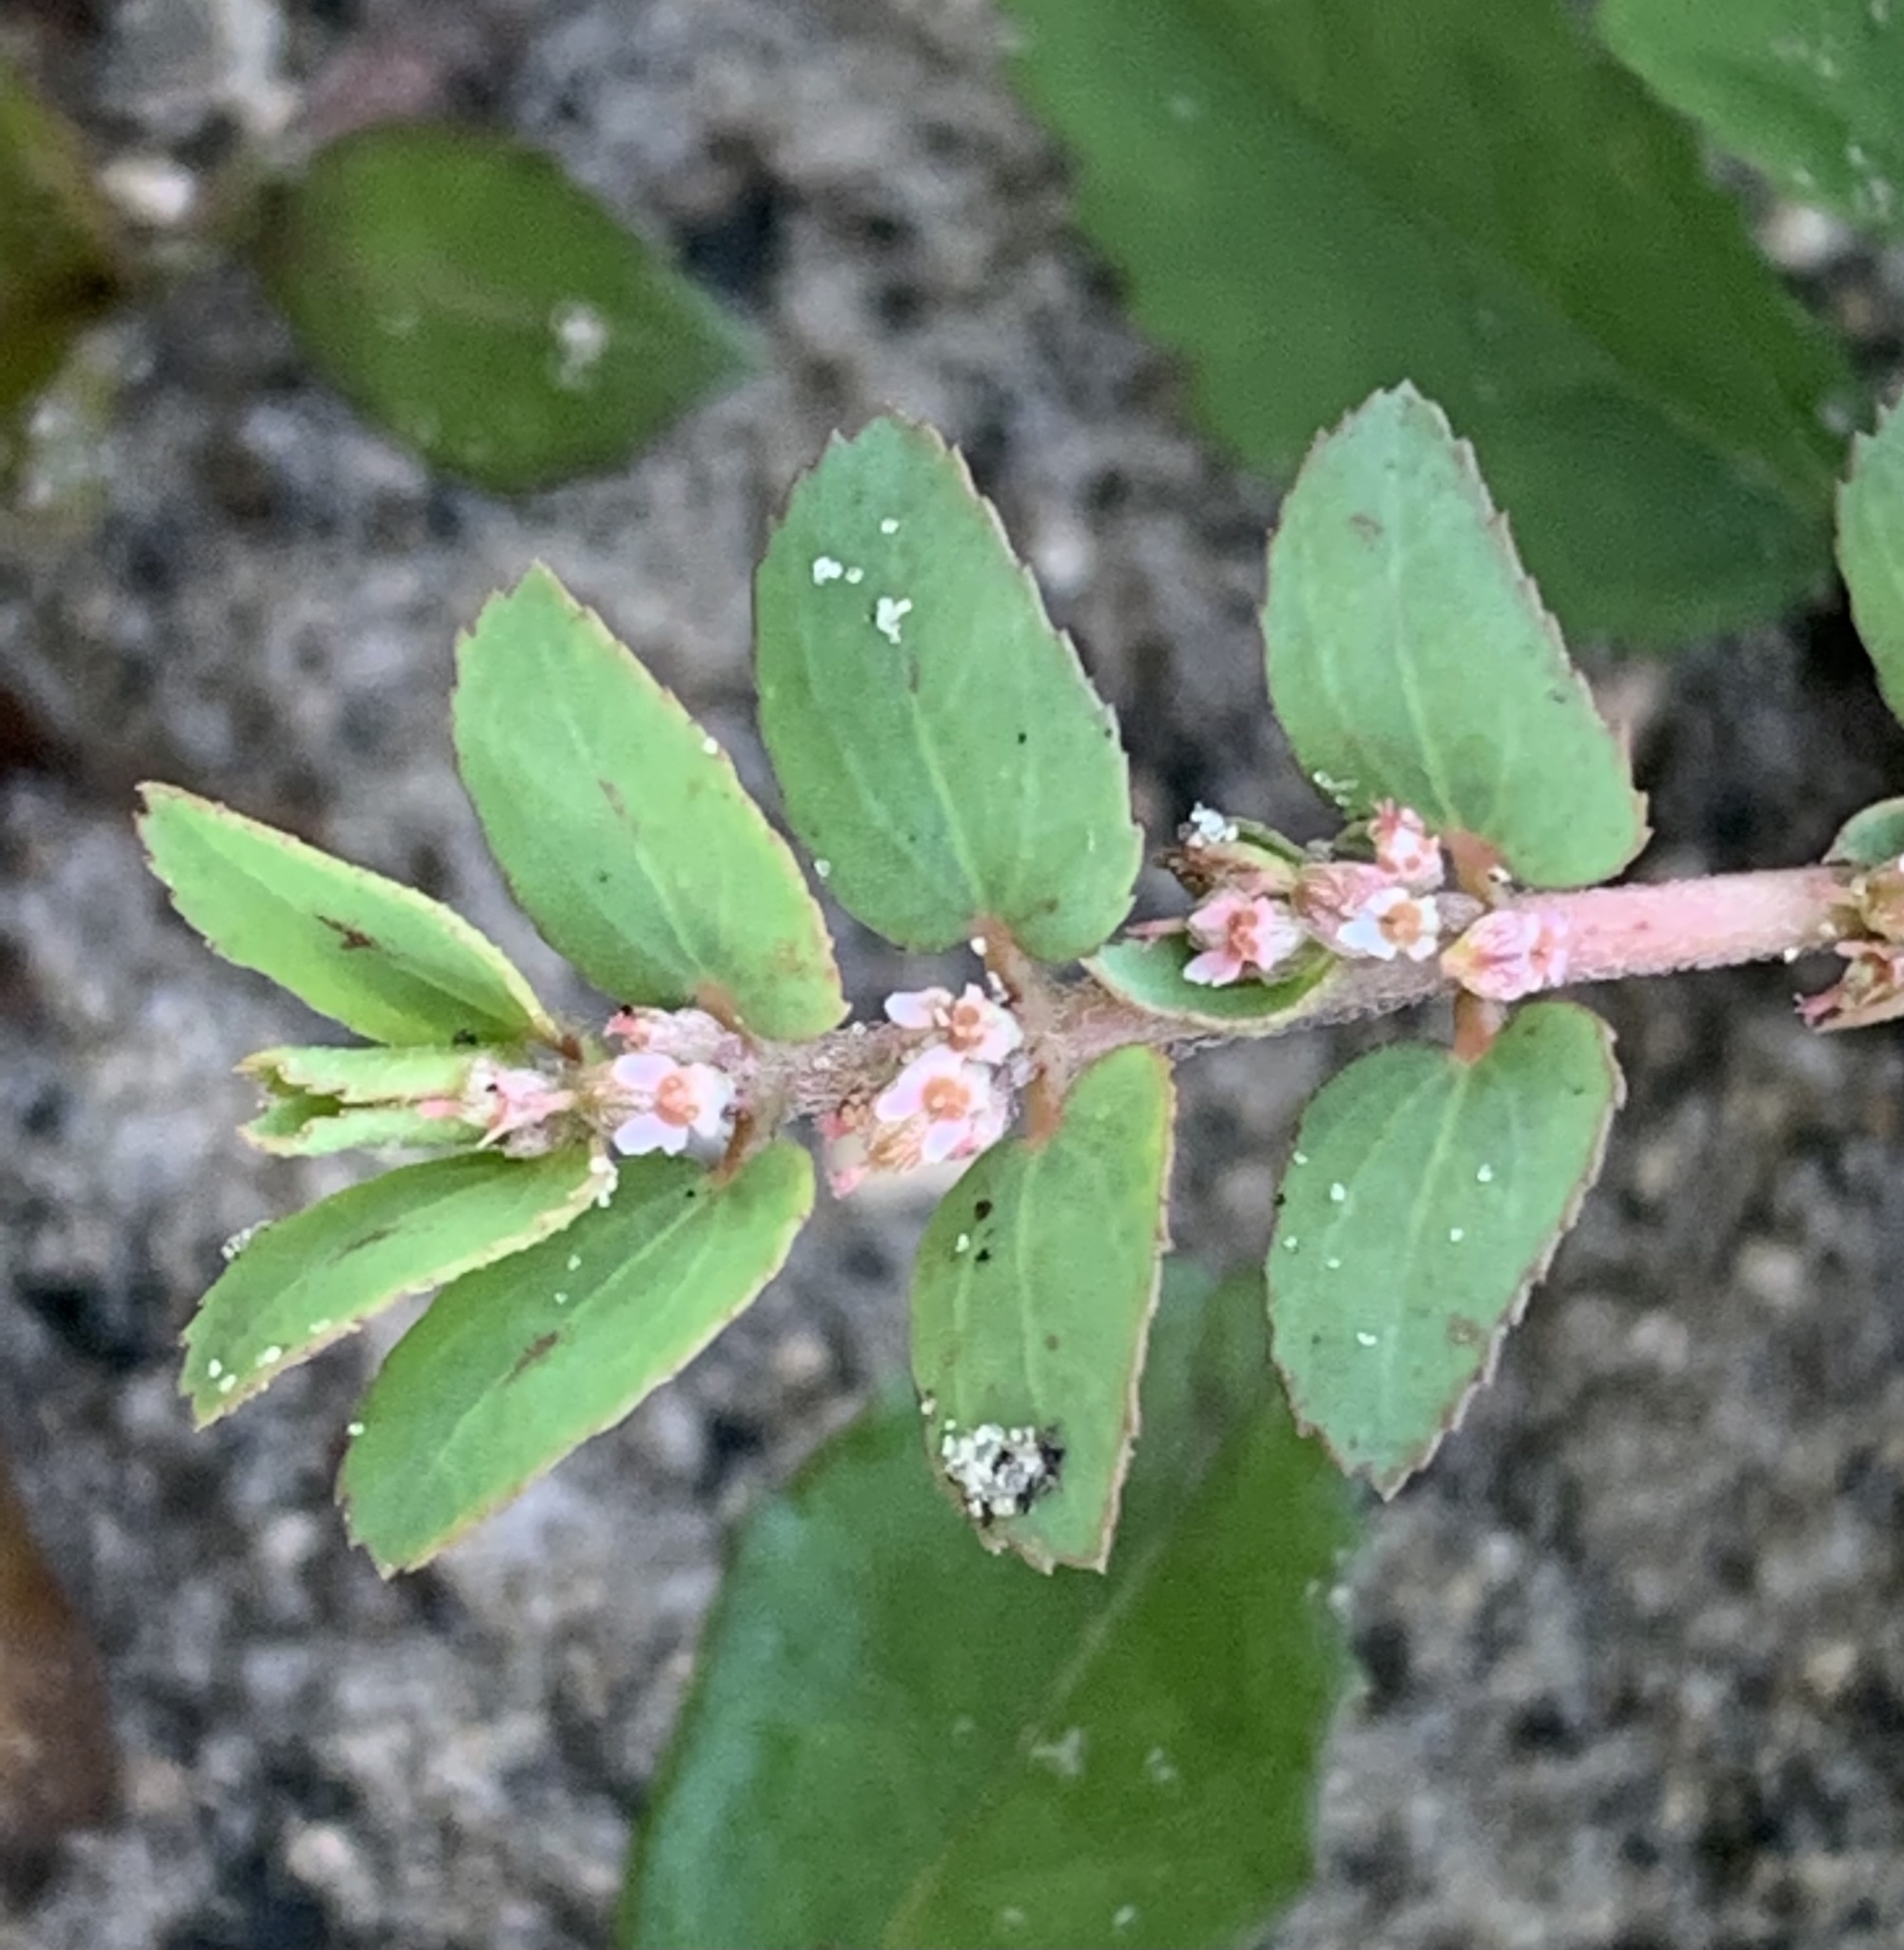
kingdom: Plantae
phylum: Tracheophyta
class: Magnoliopsida
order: Malpighiales
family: Euphorbiaceae
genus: Euphorbia
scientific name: Euphorbia thymifolia
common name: Gulf sandmat
